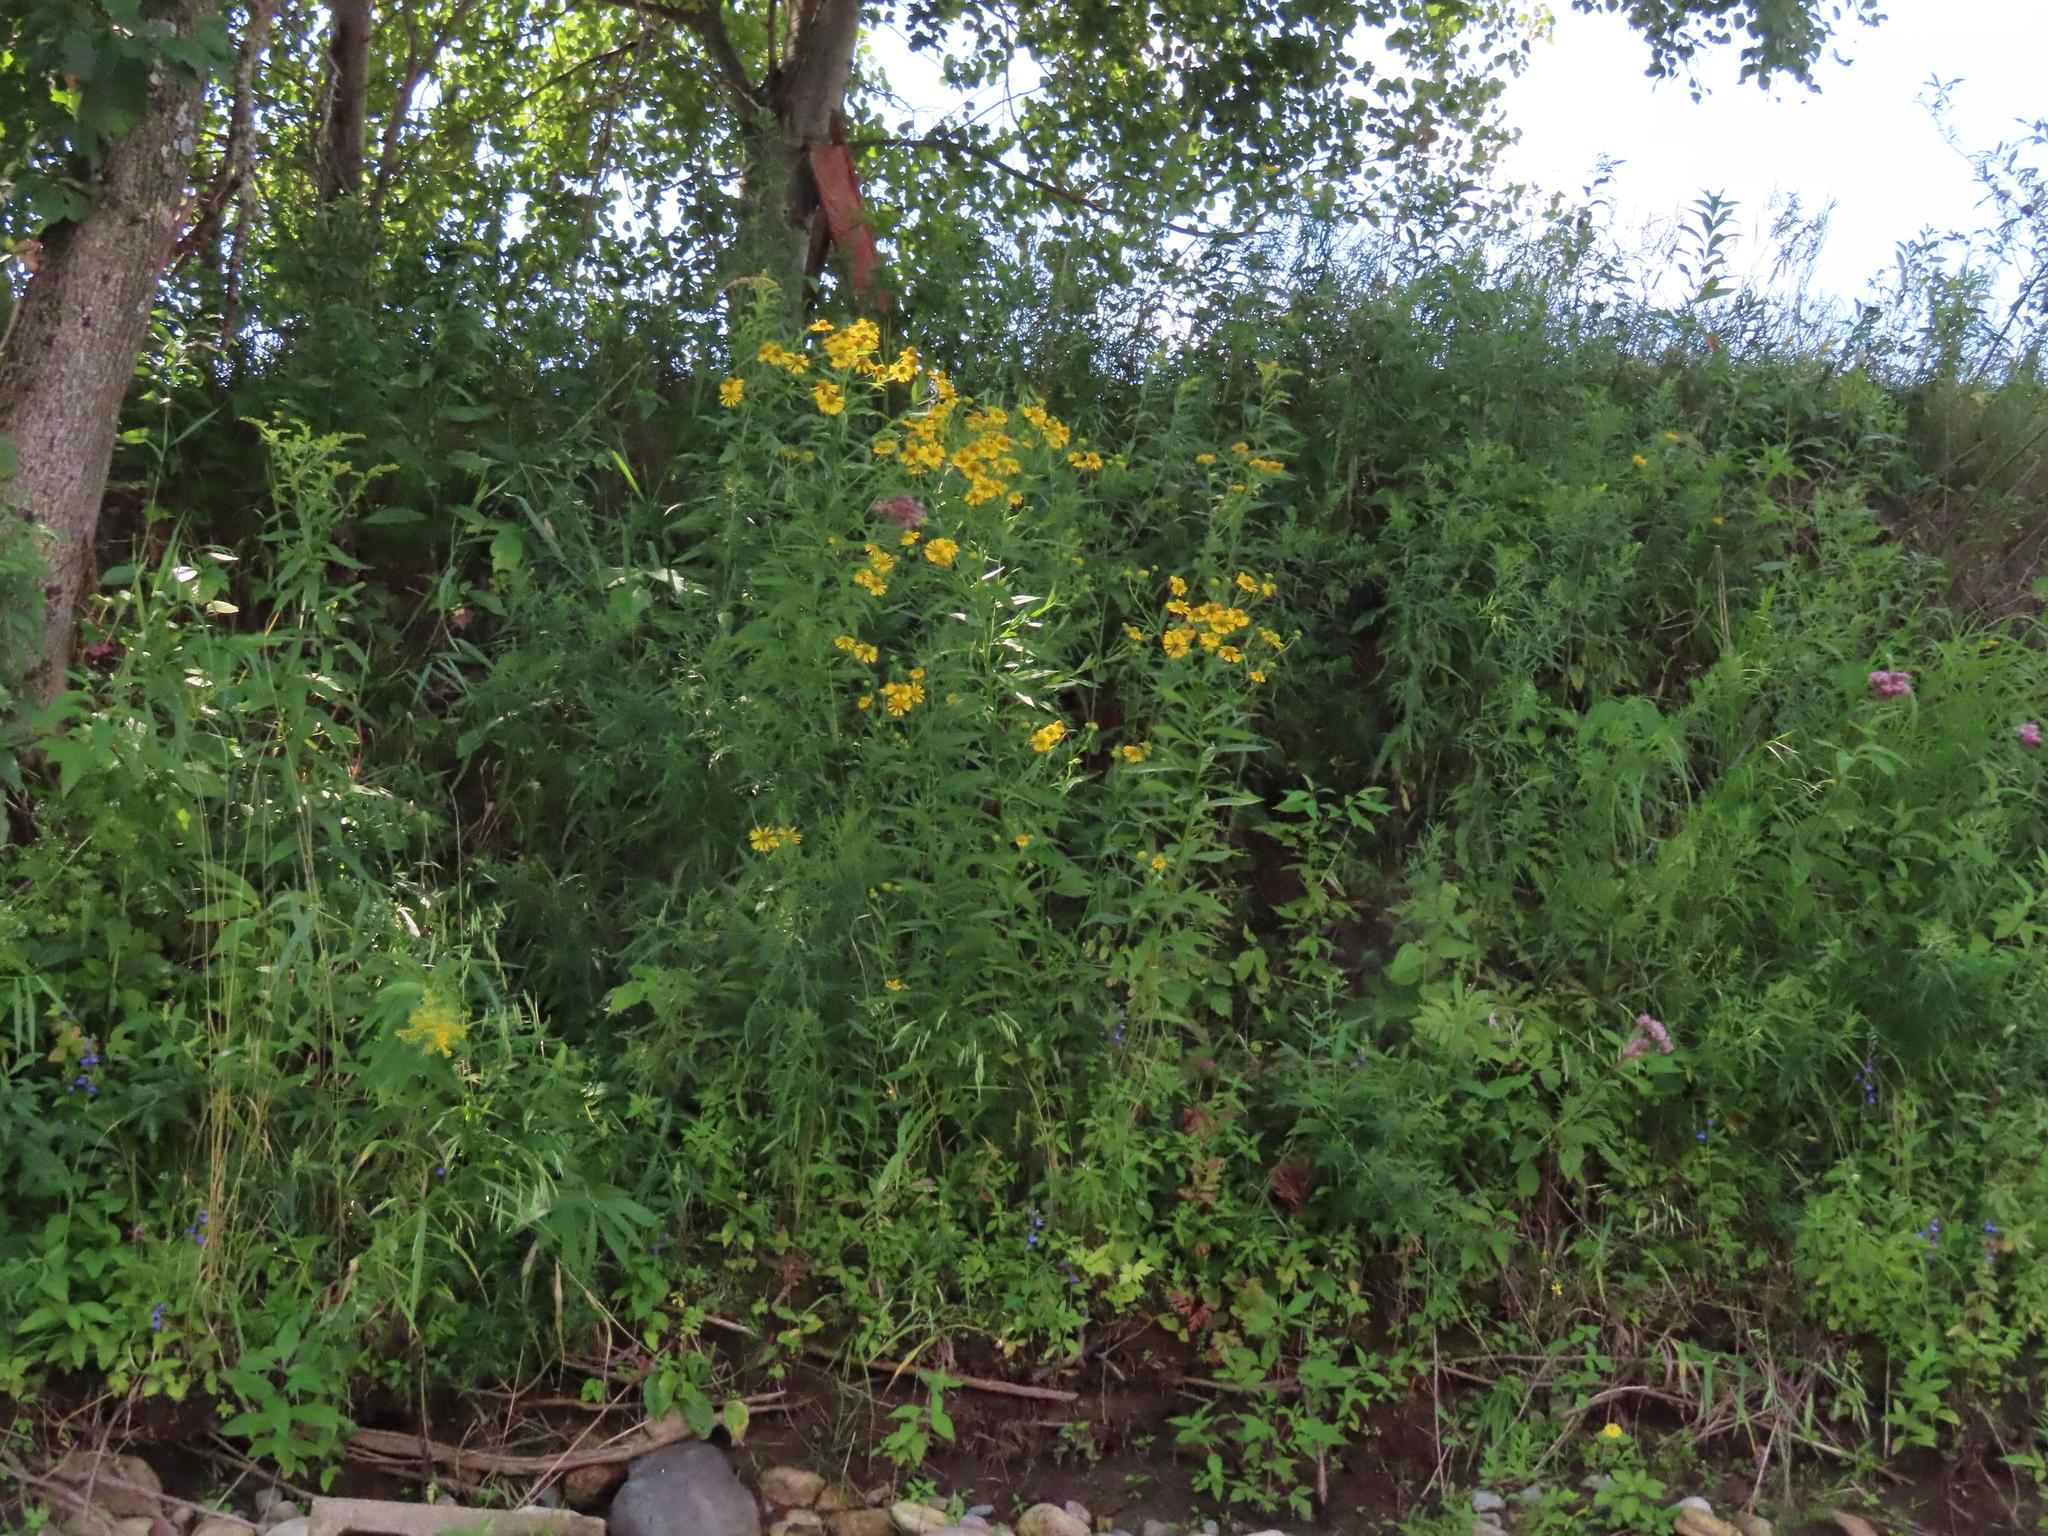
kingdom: Plantae
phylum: Tracheophyta
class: Magnoliopsida
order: Asterales
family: Asteraceae
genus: Helenium
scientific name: Helenium autumnale
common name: Sneezeweed
